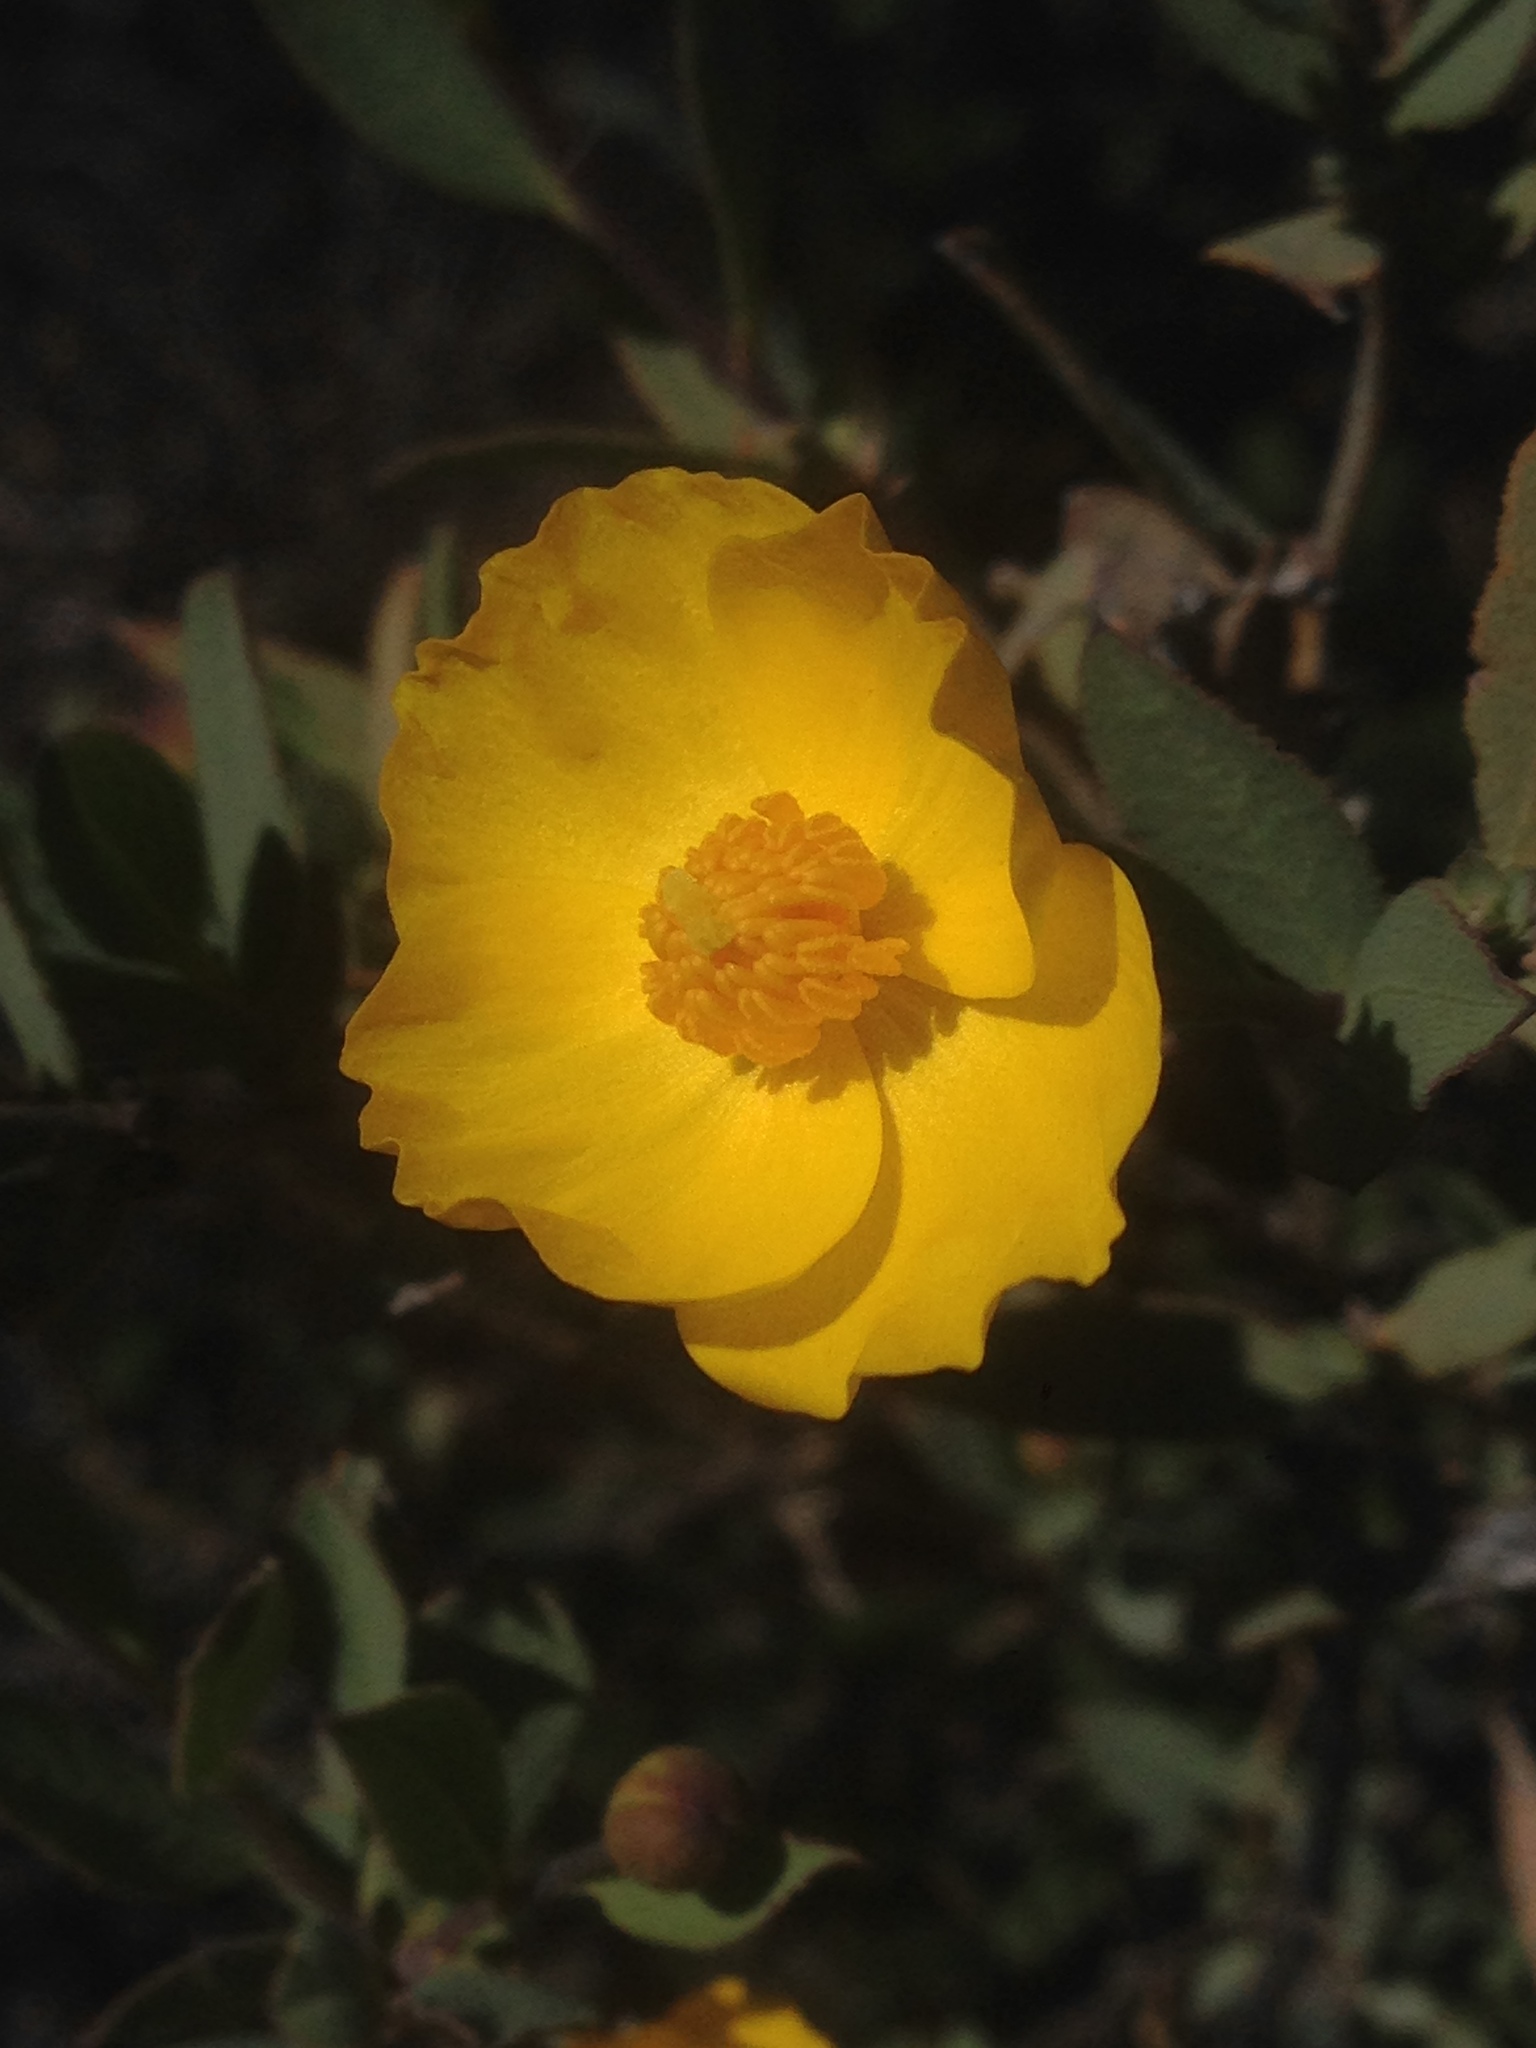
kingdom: Plantae
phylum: Tracheophyta
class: Magnoliopsida
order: Ranunculales
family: Papaveraceae
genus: Dendromecon
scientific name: Dendromecon rigida
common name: Tree poppy
